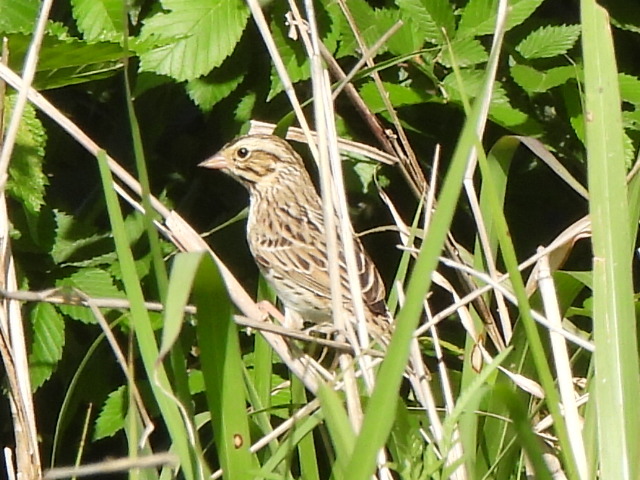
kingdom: Animalia
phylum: Chordata
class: Aves
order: Passeriformes
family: Passerellidae
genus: Passerculus
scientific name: Passerculus sandwichensis
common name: Savannah sparrow
